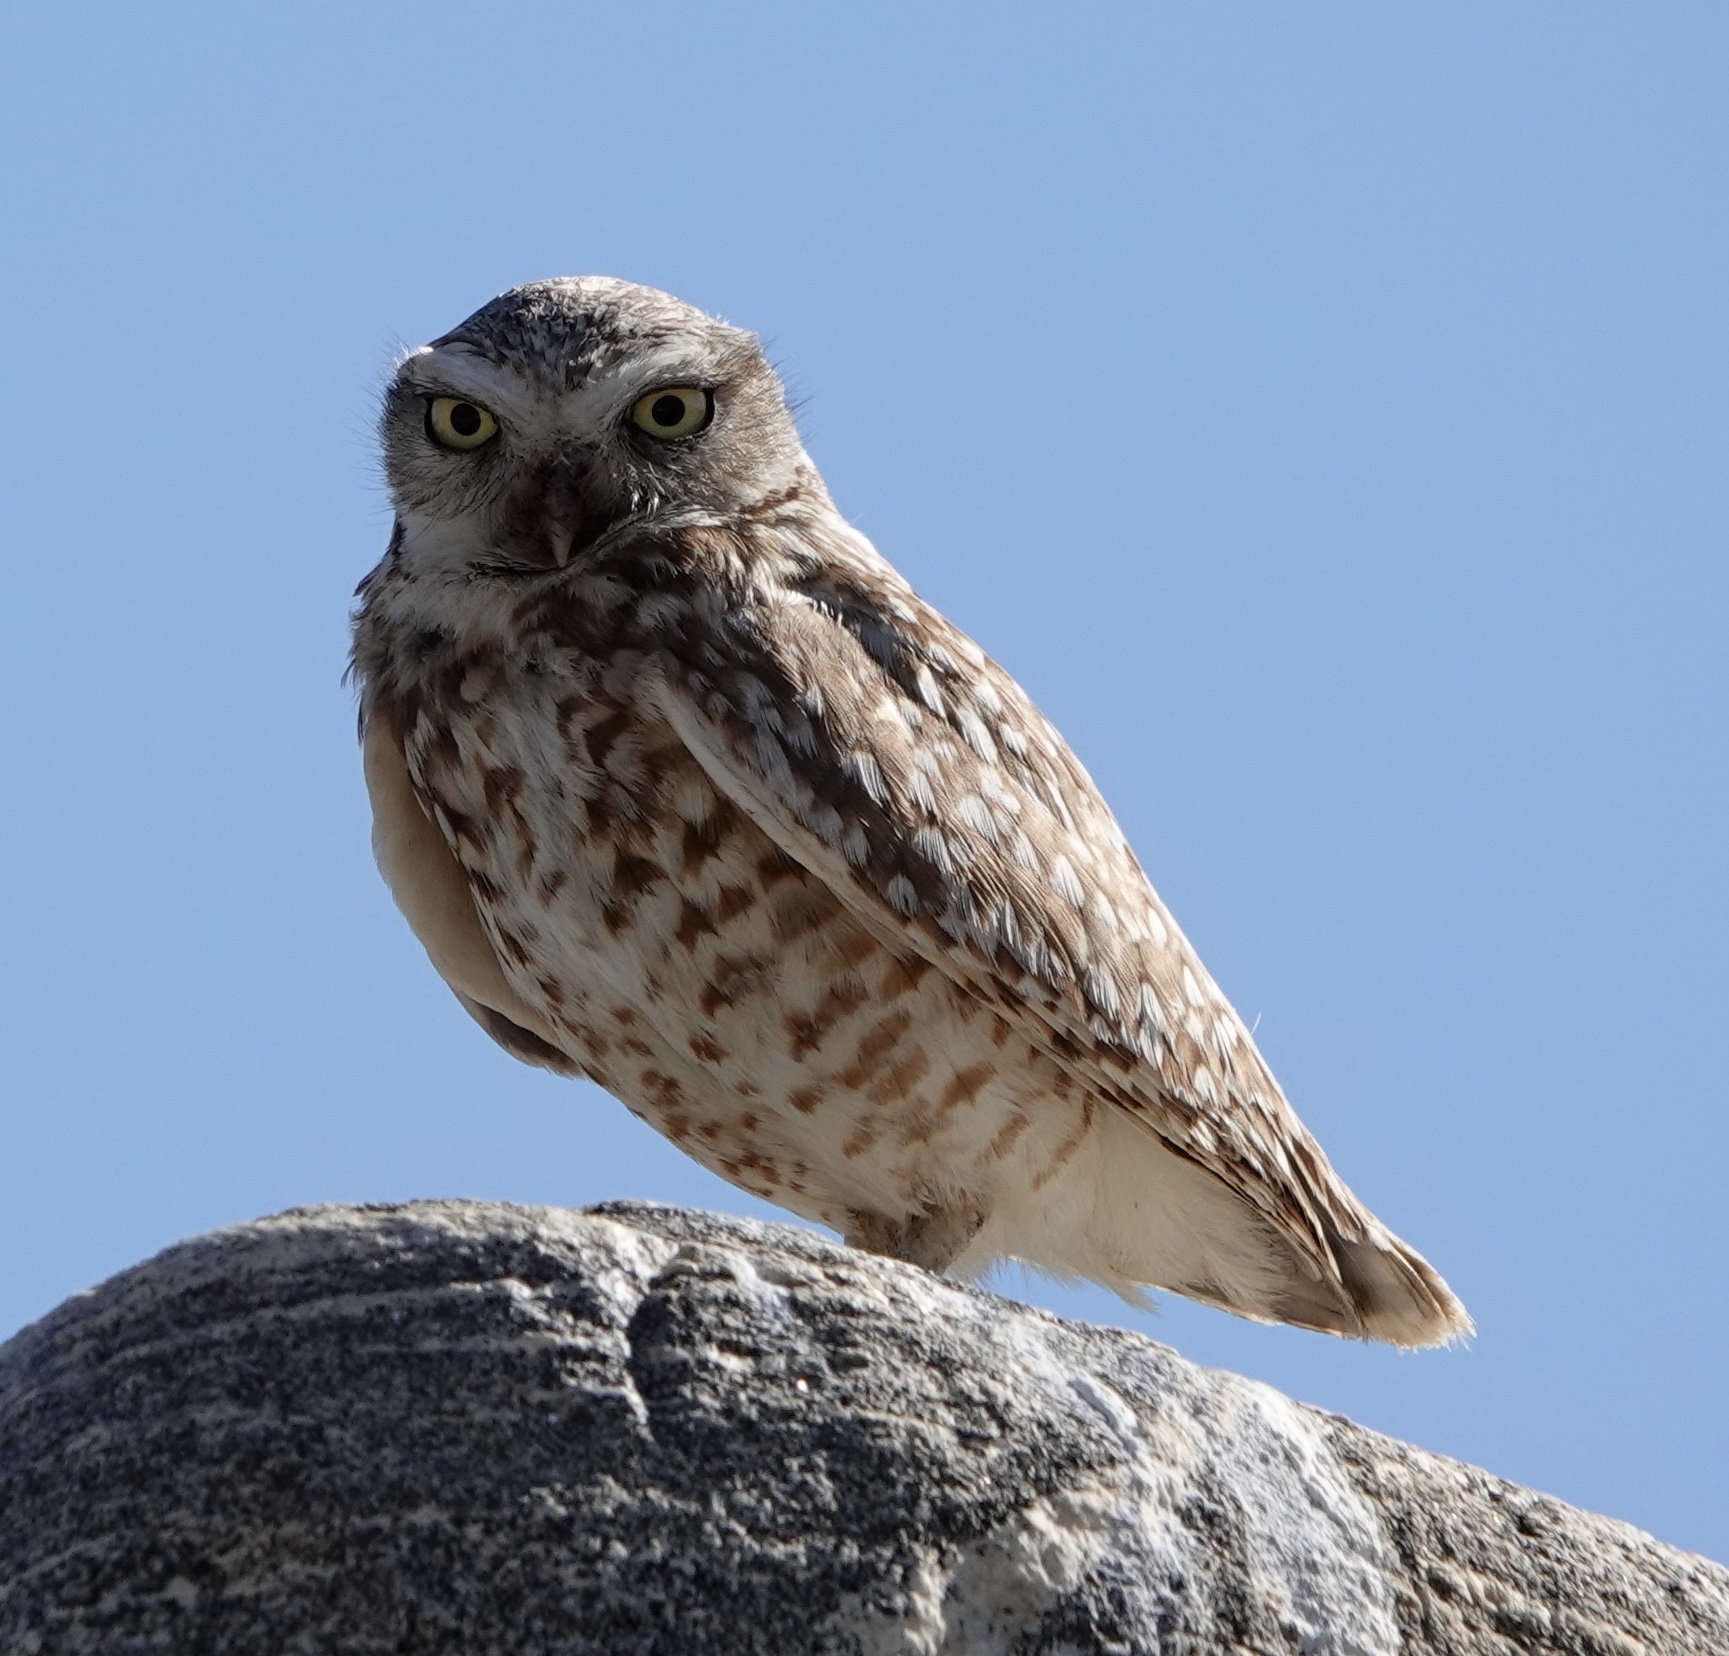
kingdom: Animalia
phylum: Chordata
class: Aves
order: Strigiformes
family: Strigidae
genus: Athene
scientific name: Athene cunicularia
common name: Burrowing owl
